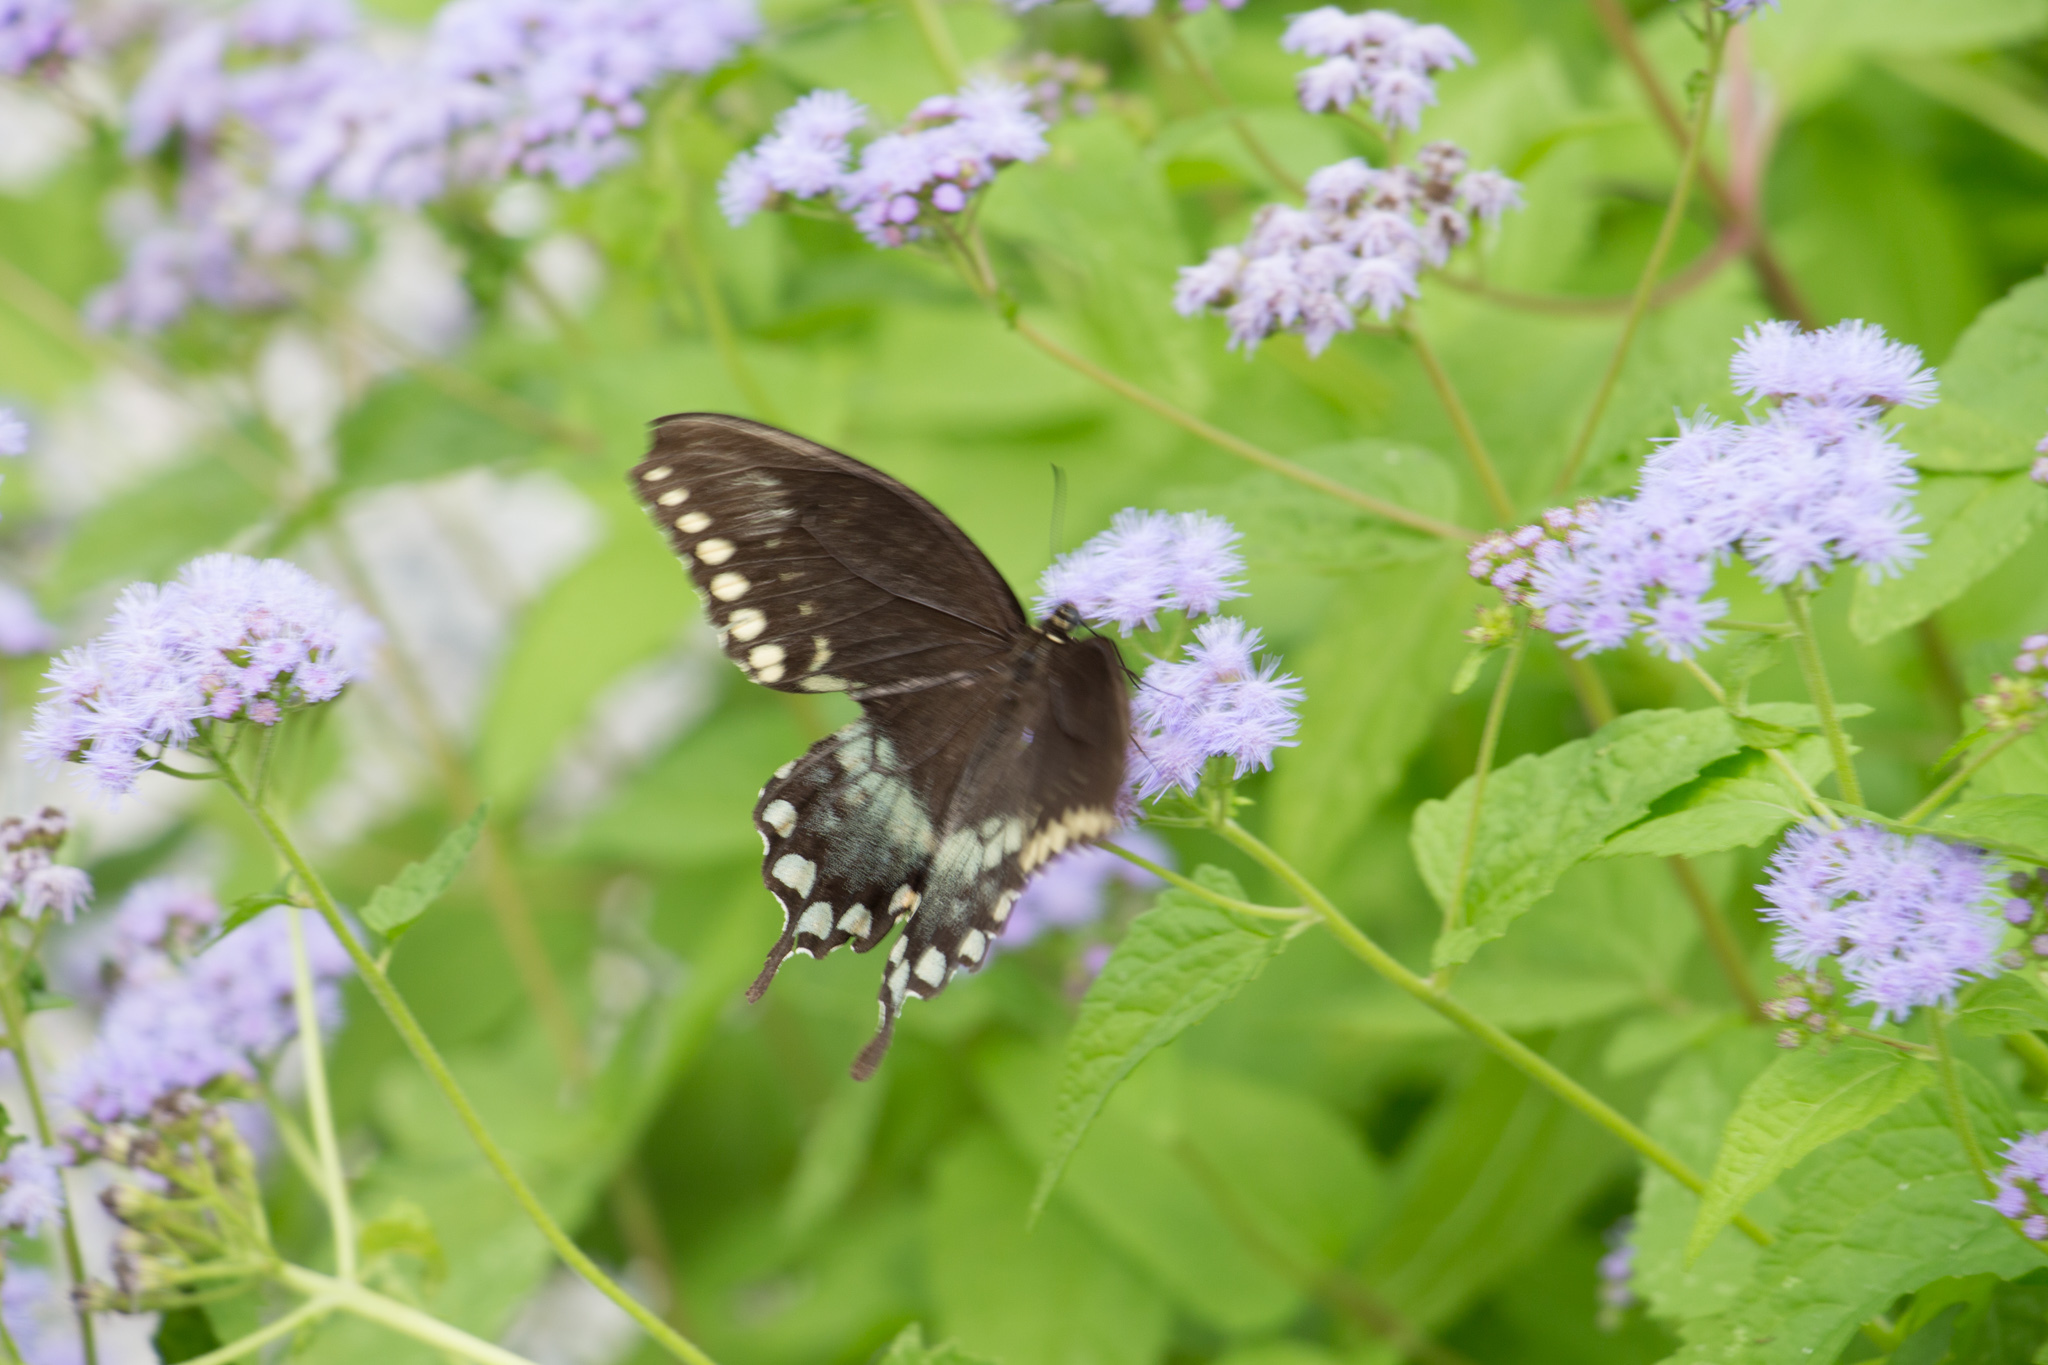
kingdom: Animalia
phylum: Arthropoda
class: Insecta
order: Lepidoptera
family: Papilionidae
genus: Papilio
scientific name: Papilio troilus
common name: Spicebush swallowtail
